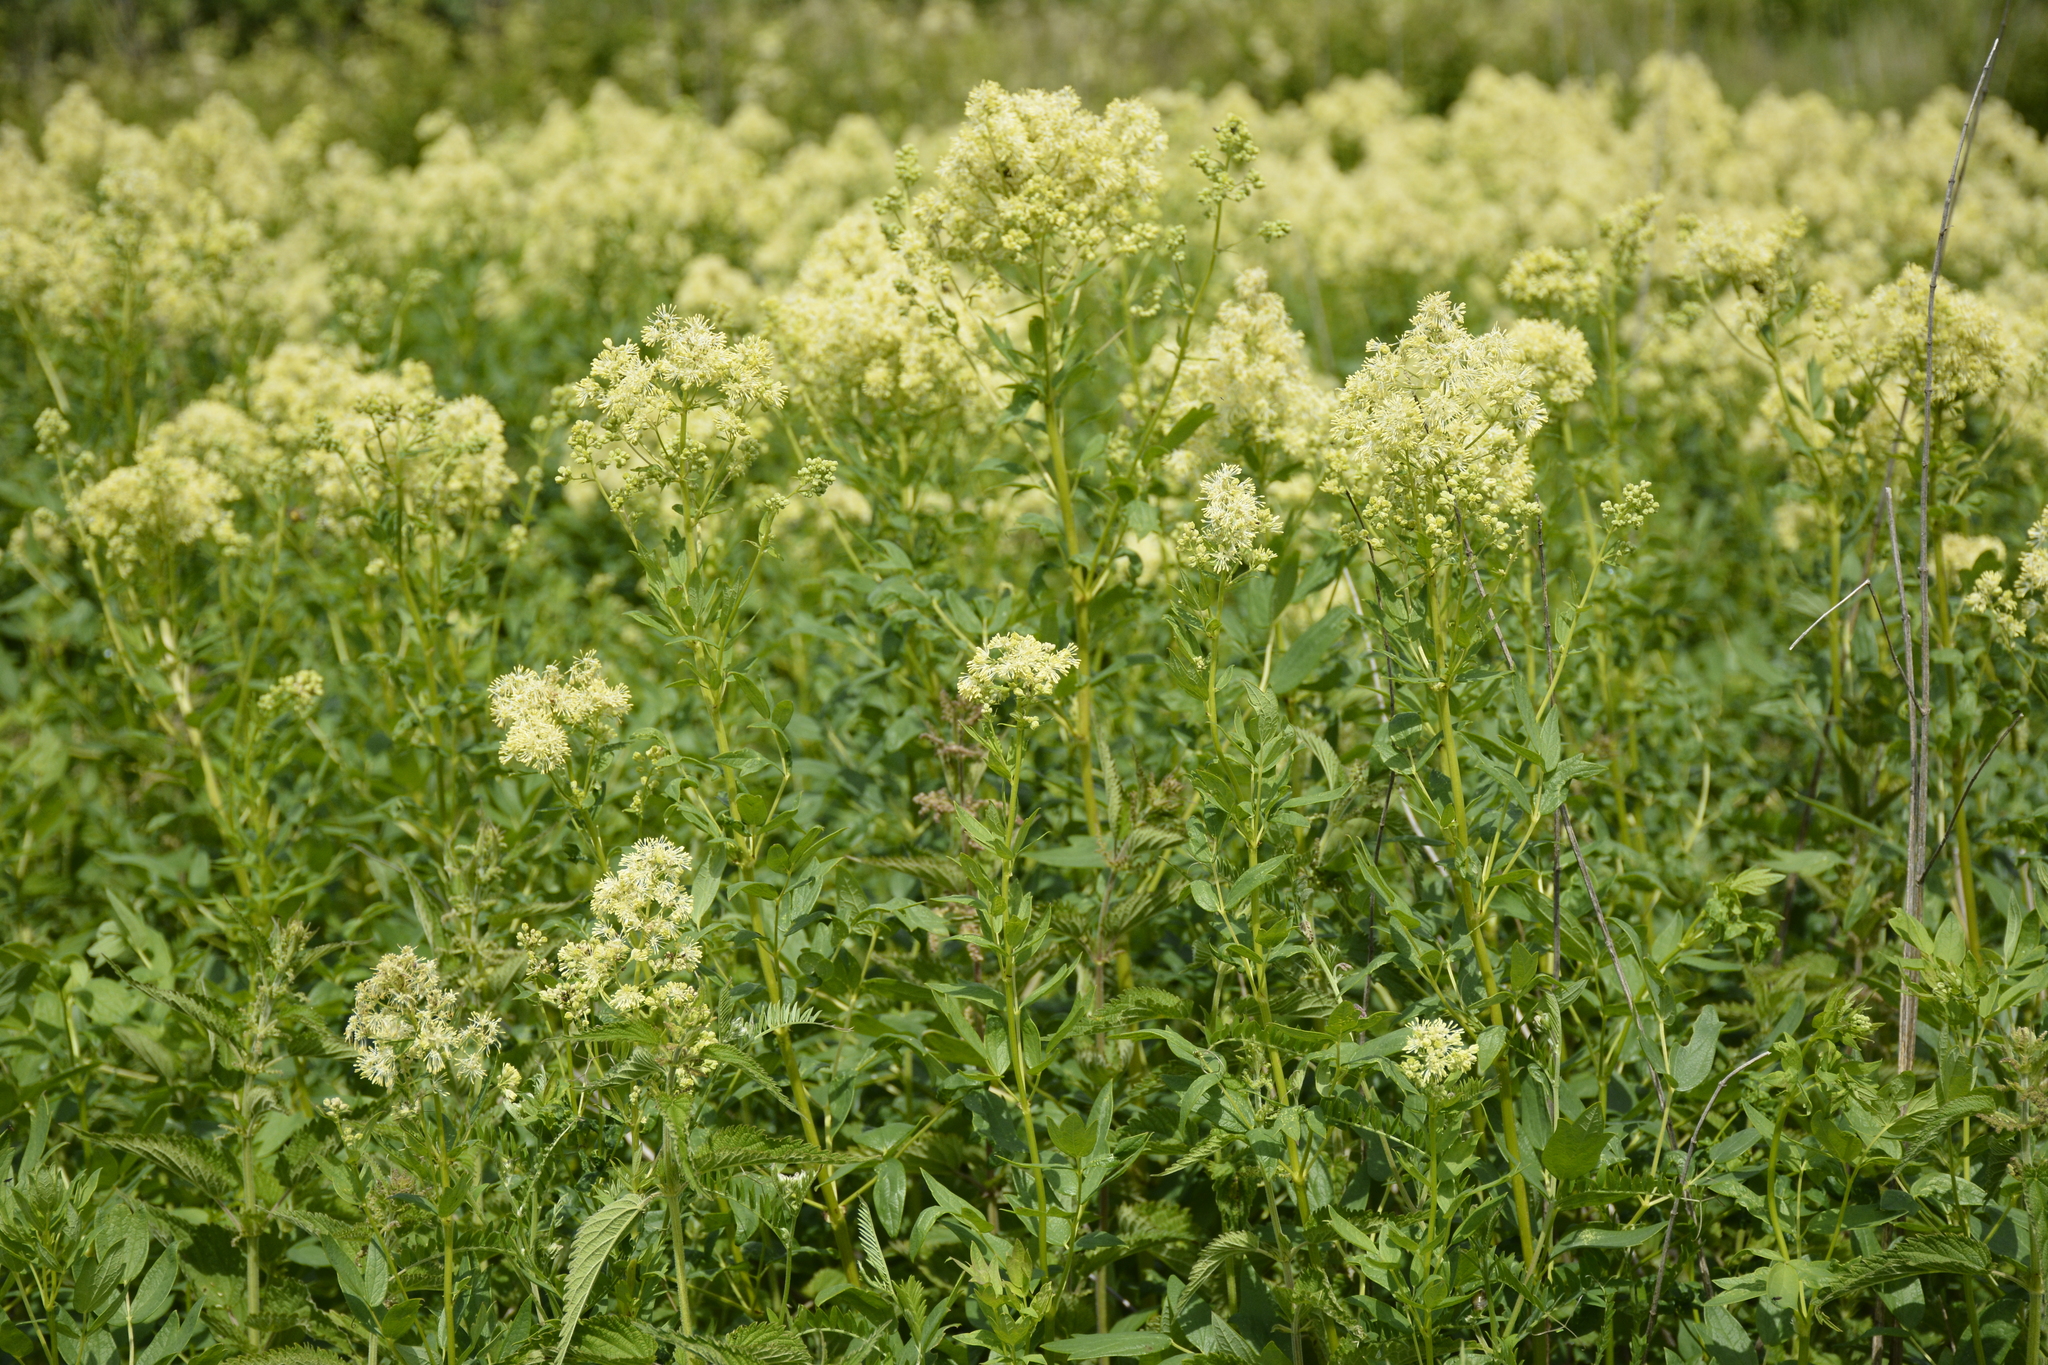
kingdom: Plantae
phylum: Tracheophyta
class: Magnoliopsida
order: Ranunculales
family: Ranunculaceae
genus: Thalictrum
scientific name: Thalictrum flavum
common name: Common meadow-rue
